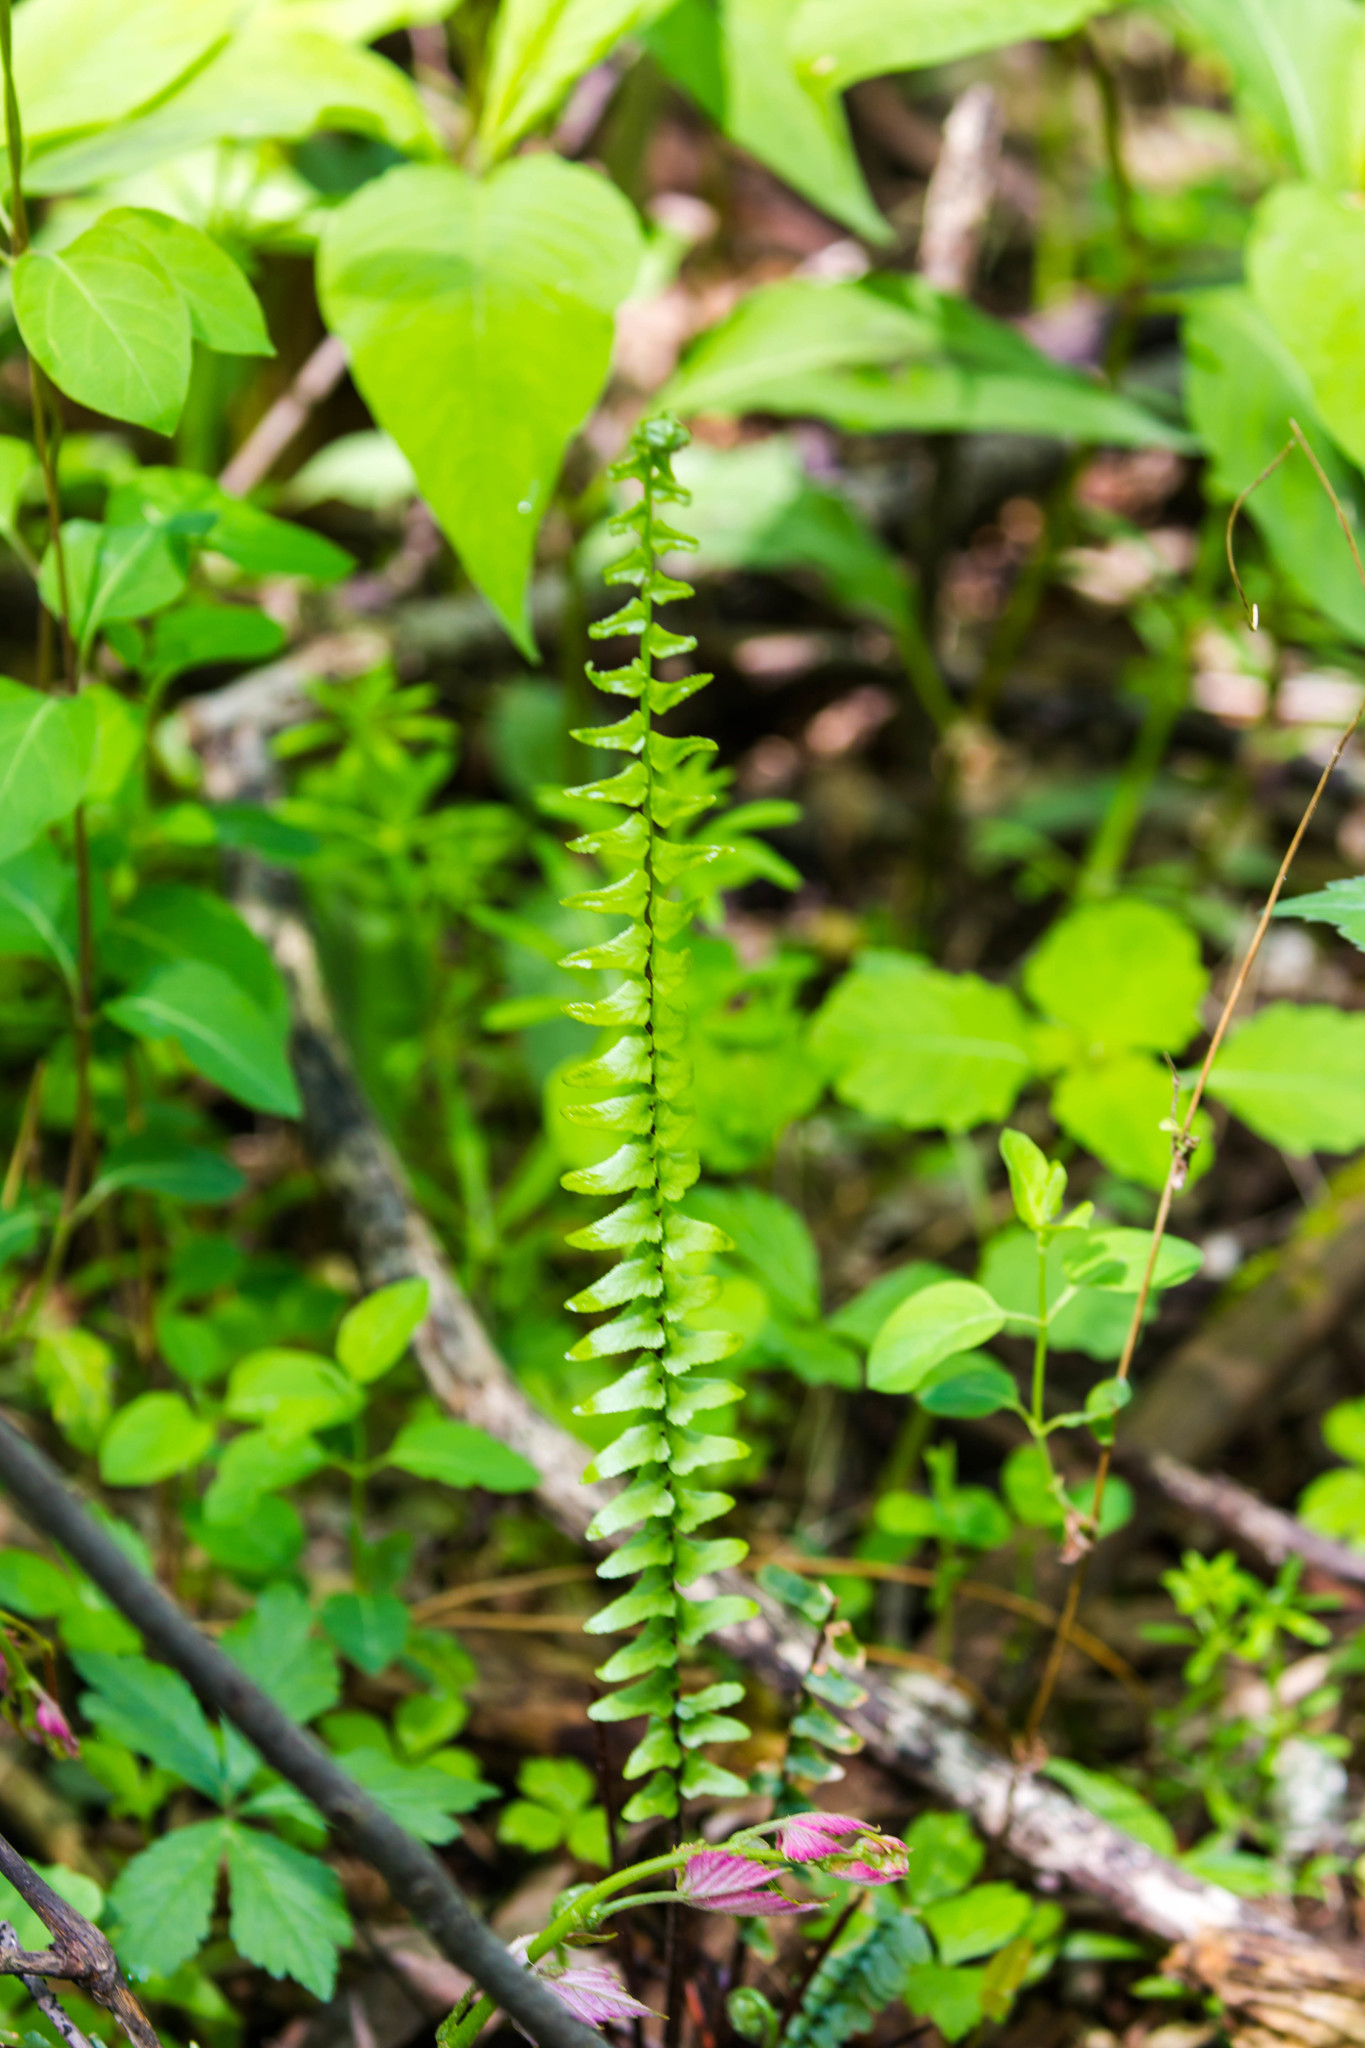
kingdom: Plantae
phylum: Tracheophyta
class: Polypodiopsida
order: Polypodiales
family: Aspleniaceae
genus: Asplenium
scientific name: Asplenium platyneuron
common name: Ebony spleenwort
